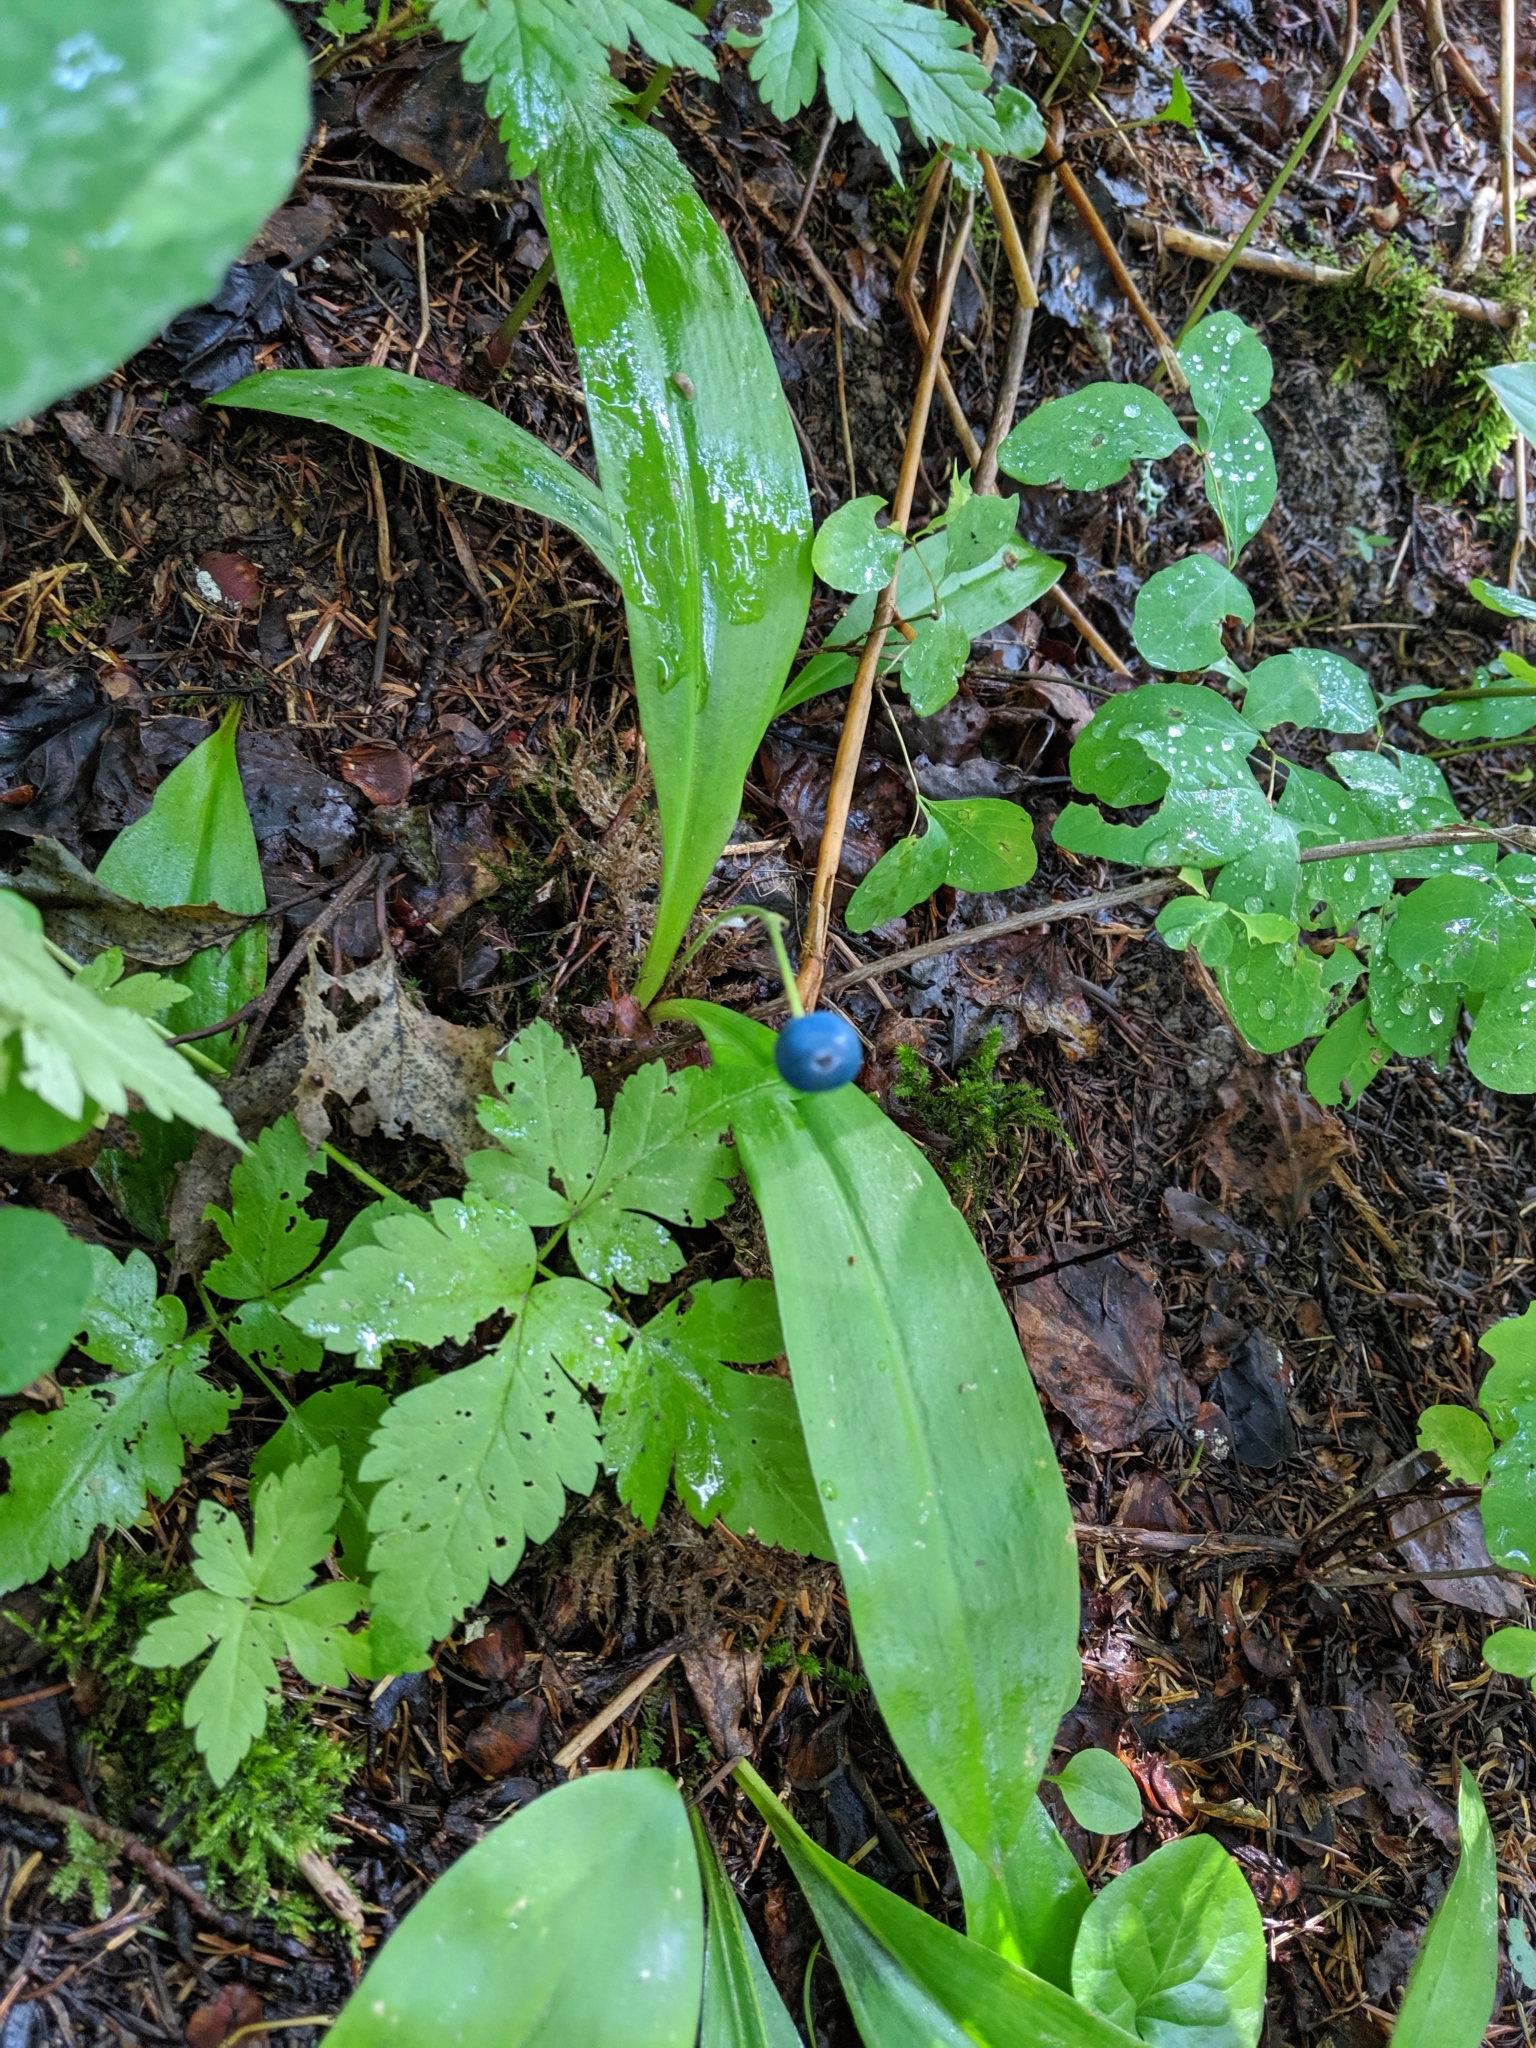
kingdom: Plantae
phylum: Tracheophyta
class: Liliopsida
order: Liliales
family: Liliaceae
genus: Clintonia
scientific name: Clintonia uniflora
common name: Queen's cup
